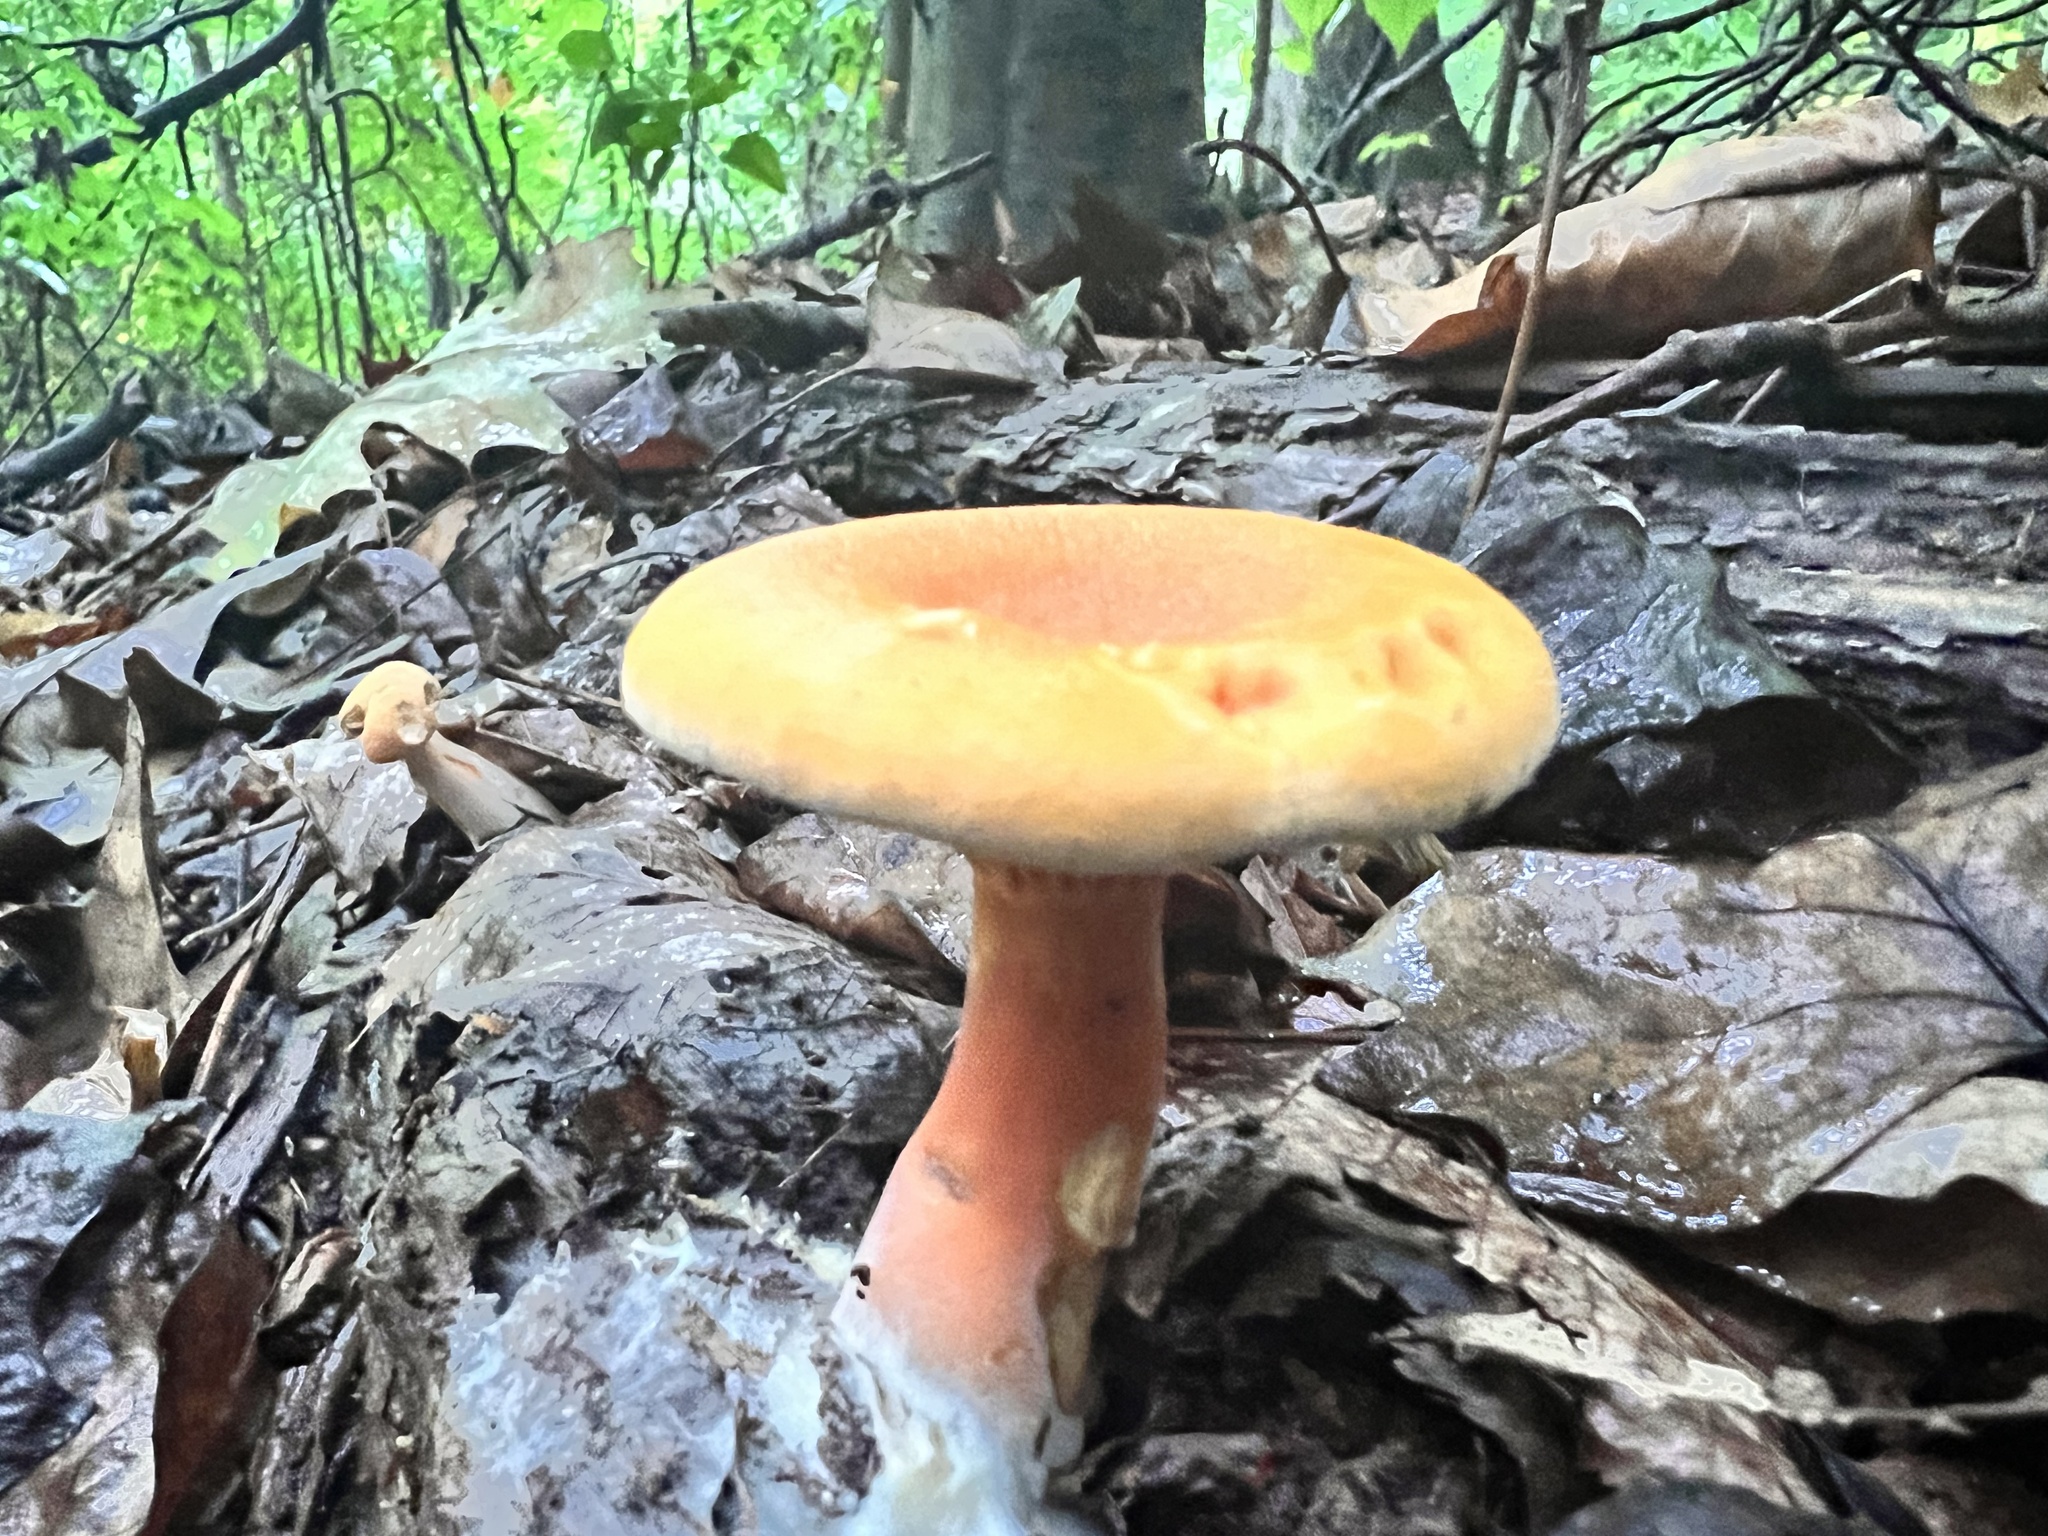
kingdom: Fungi
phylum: Basidiomycota
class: Agaricomycetes
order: Boletales
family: Hygrophoropsidaceae
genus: Hygrophoropsis
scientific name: Hygrophoropsis aurantiaca
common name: False chanterelle
